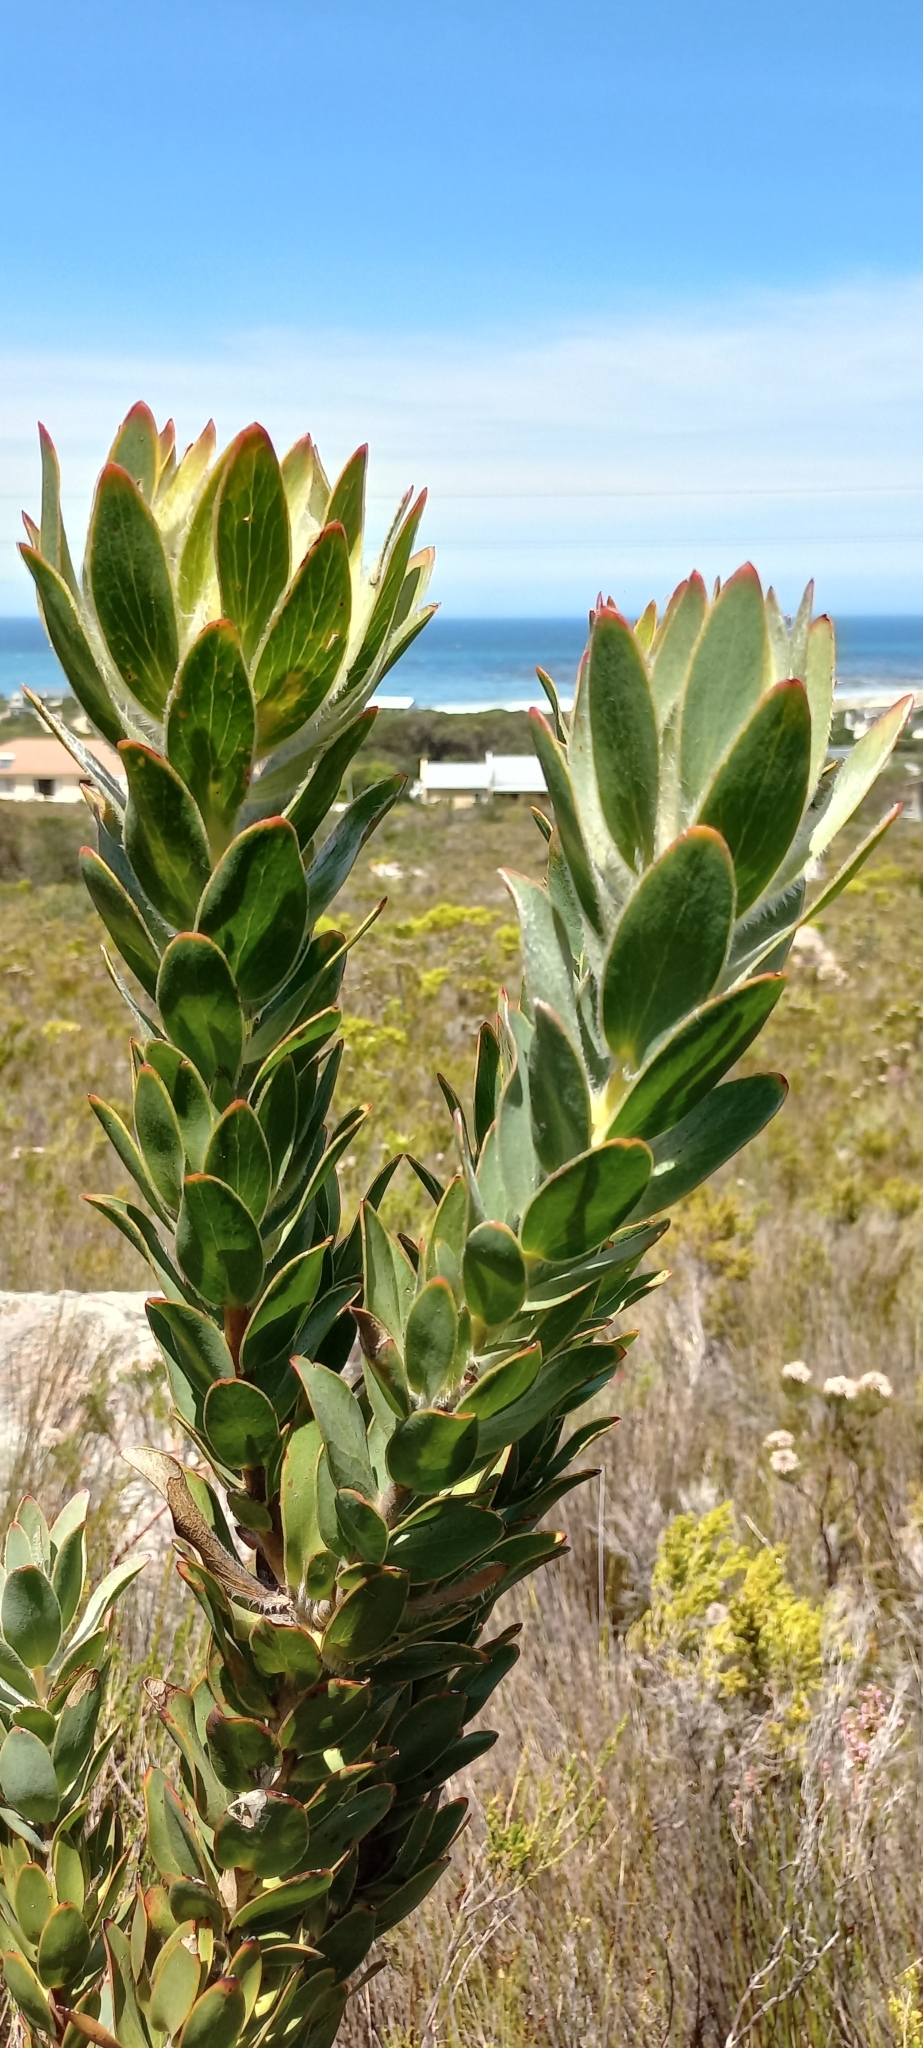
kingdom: Plantae
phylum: Tracheophyta
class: Magnoliopsida
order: Proteales
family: Proteaceae
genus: Leucadendron
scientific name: Leucadendron nervosum
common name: Silky-ruff conebush
